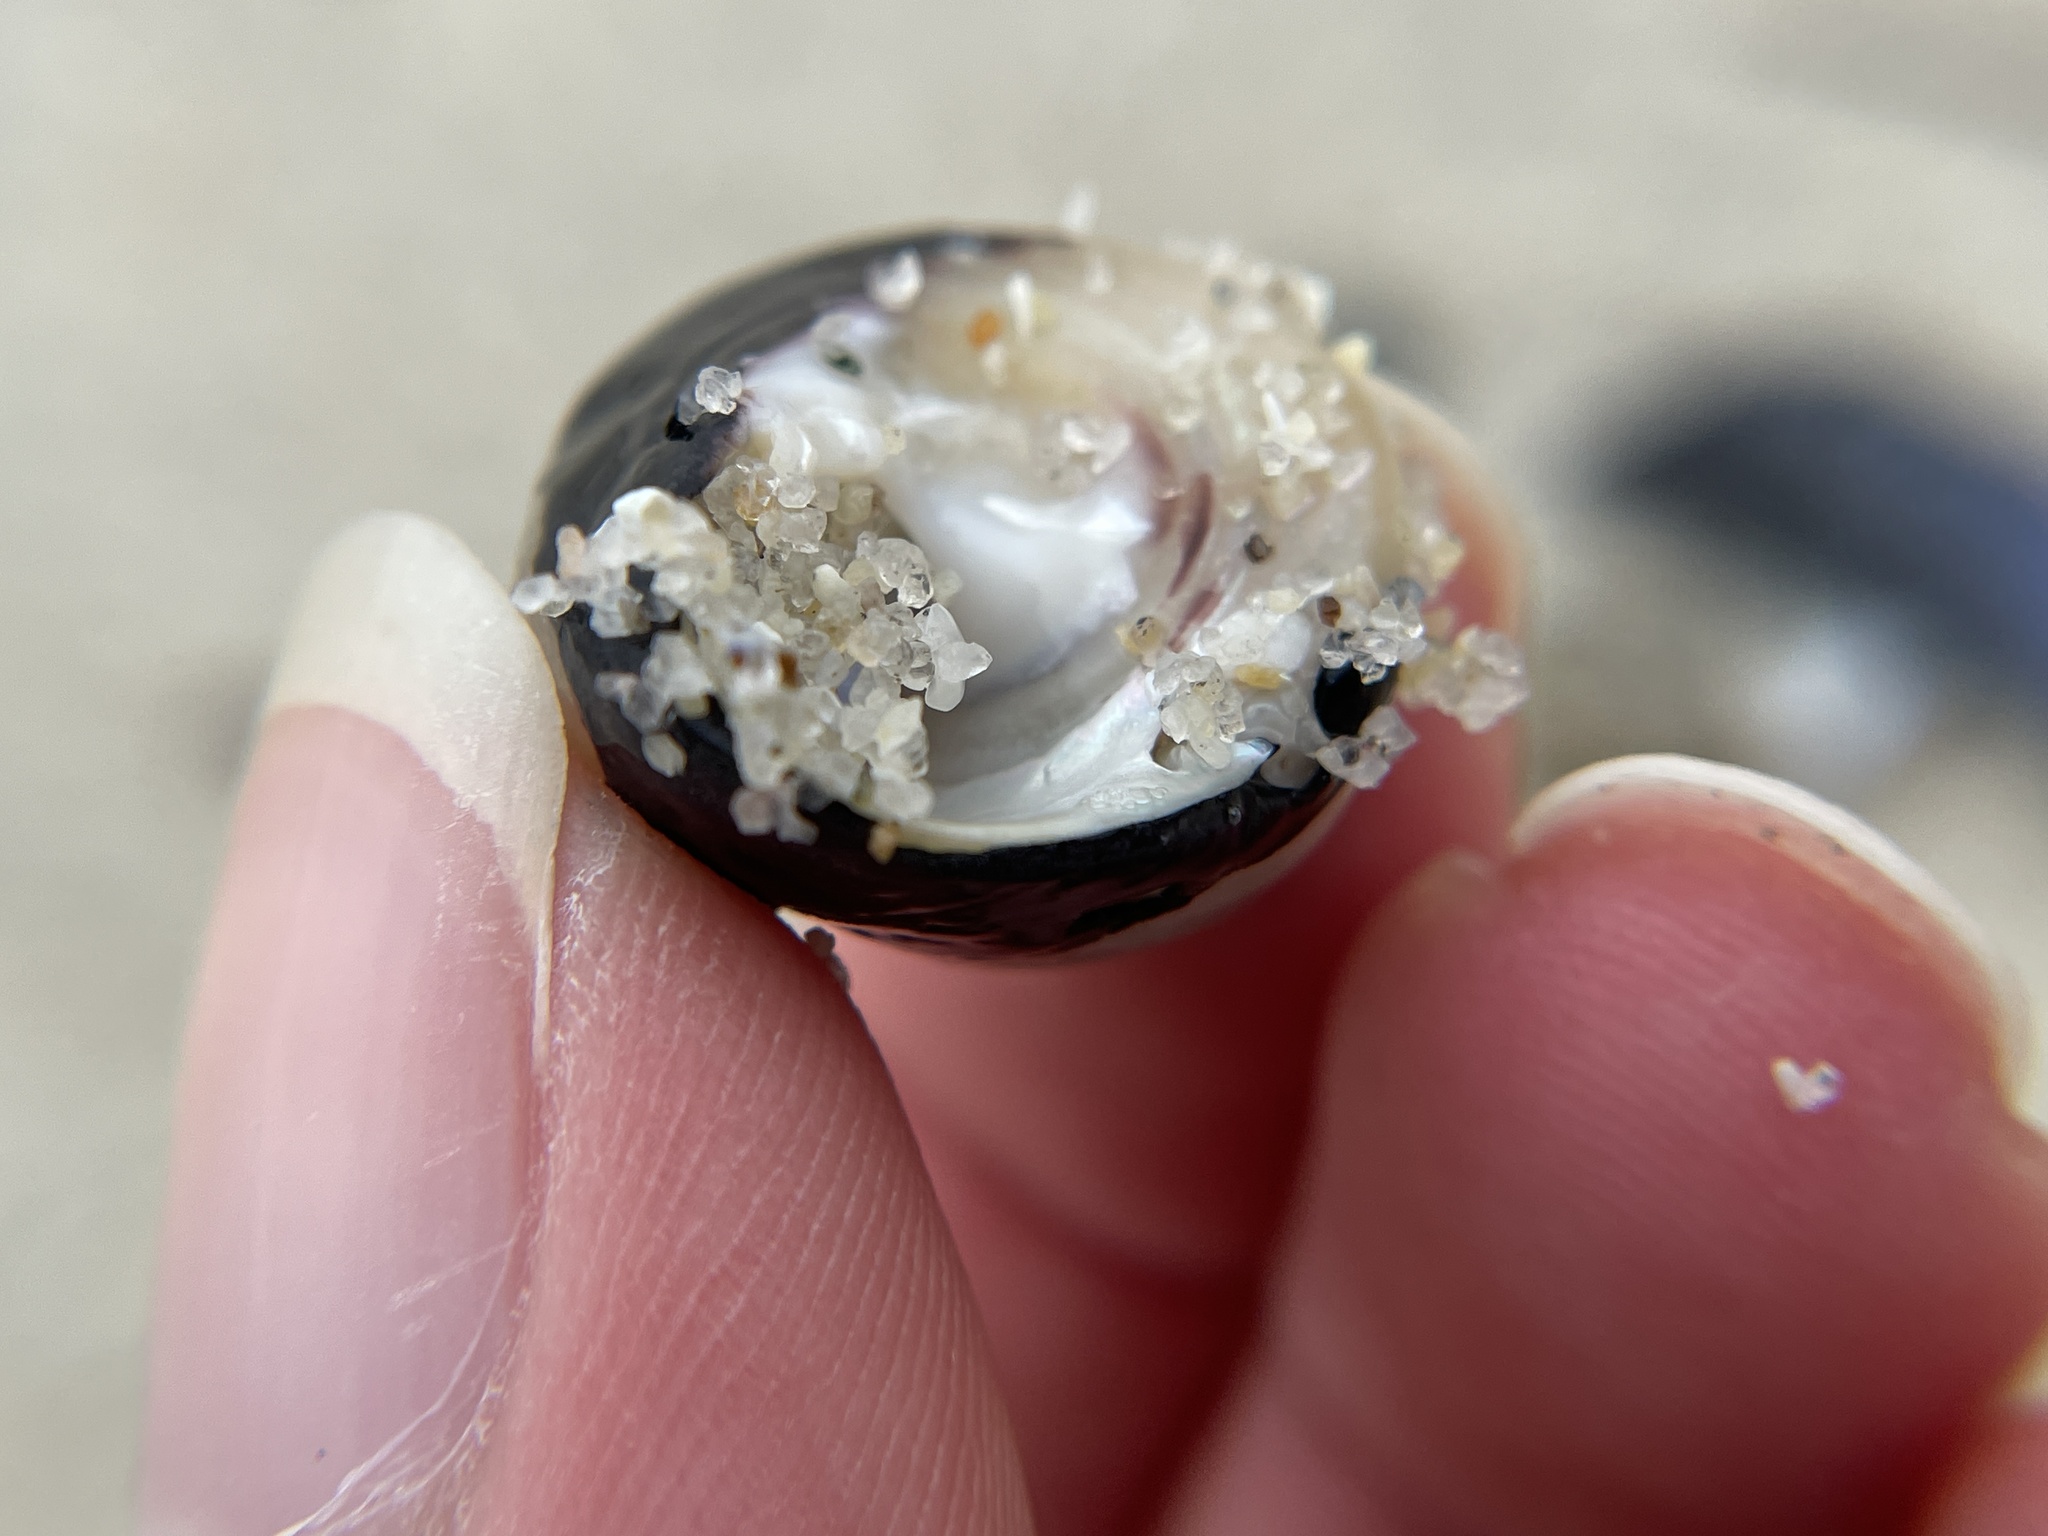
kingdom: Animalia
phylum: Mollusca
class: Gastropoda
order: Trochida
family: Tegulidae
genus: Tegula
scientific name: Tegula funebralis
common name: Black tegula
